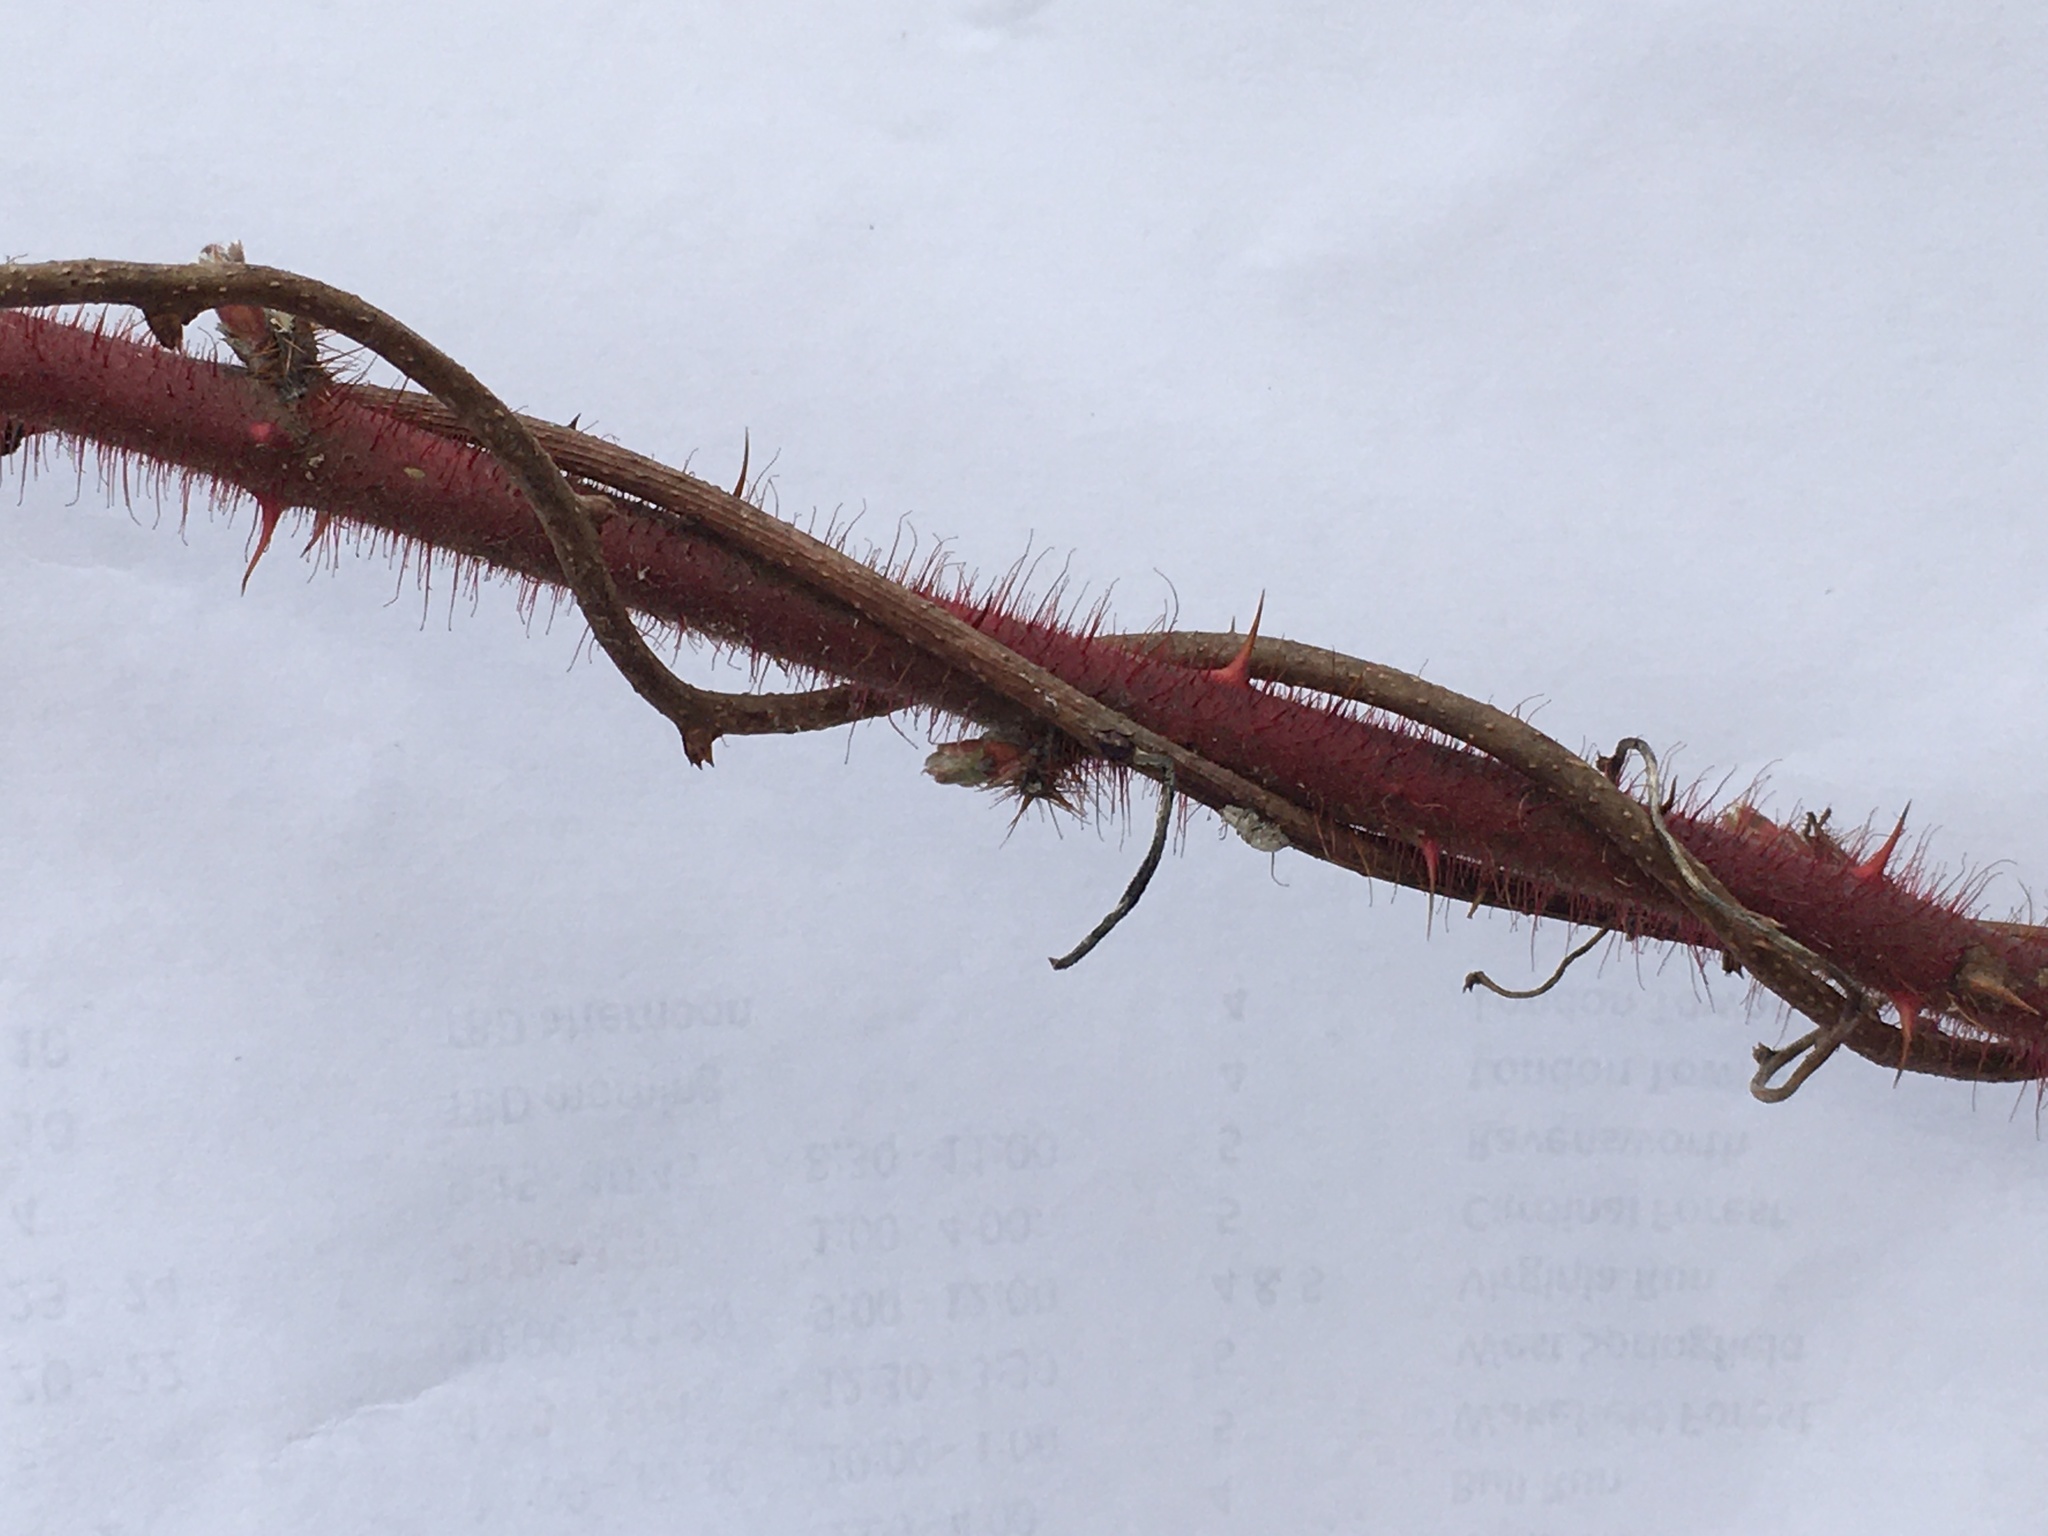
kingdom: Plantae
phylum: Tracheophyta
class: Magnoliopsida
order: Rosales
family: Rosaceae
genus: Rubus
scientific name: Rubus phoenicolasius
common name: Japanese wineberry
